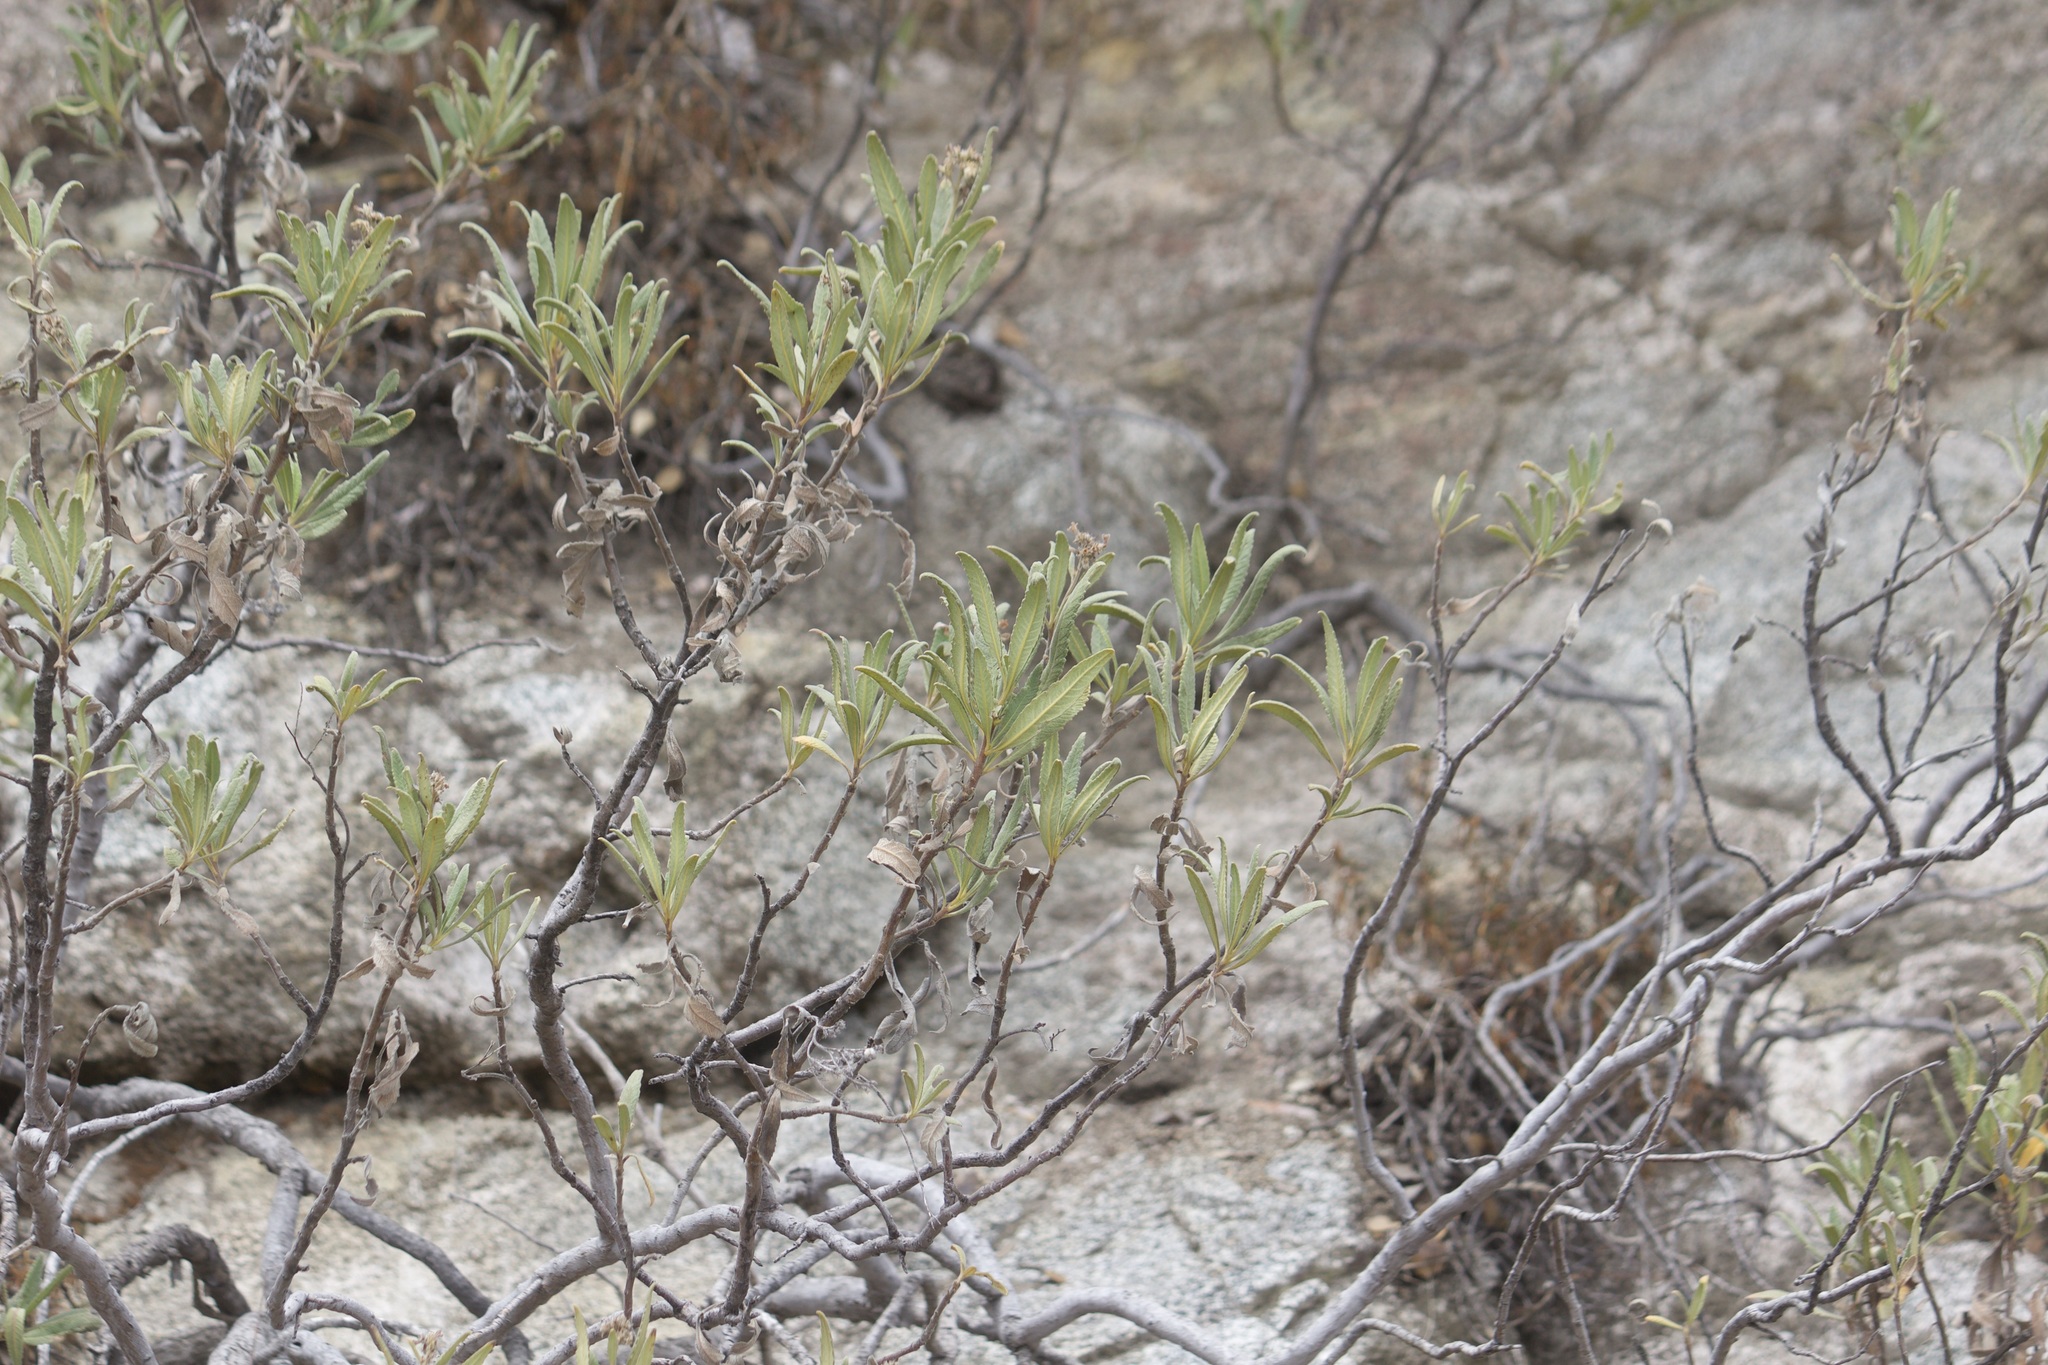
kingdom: Plantae
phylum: Tracheophyta
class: Magnoliopsida
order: Boraginales
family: Namaceae
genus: Eriodictyon
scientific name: Eriodictyon crassifolium
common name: Thick-leaf yerba-santa
